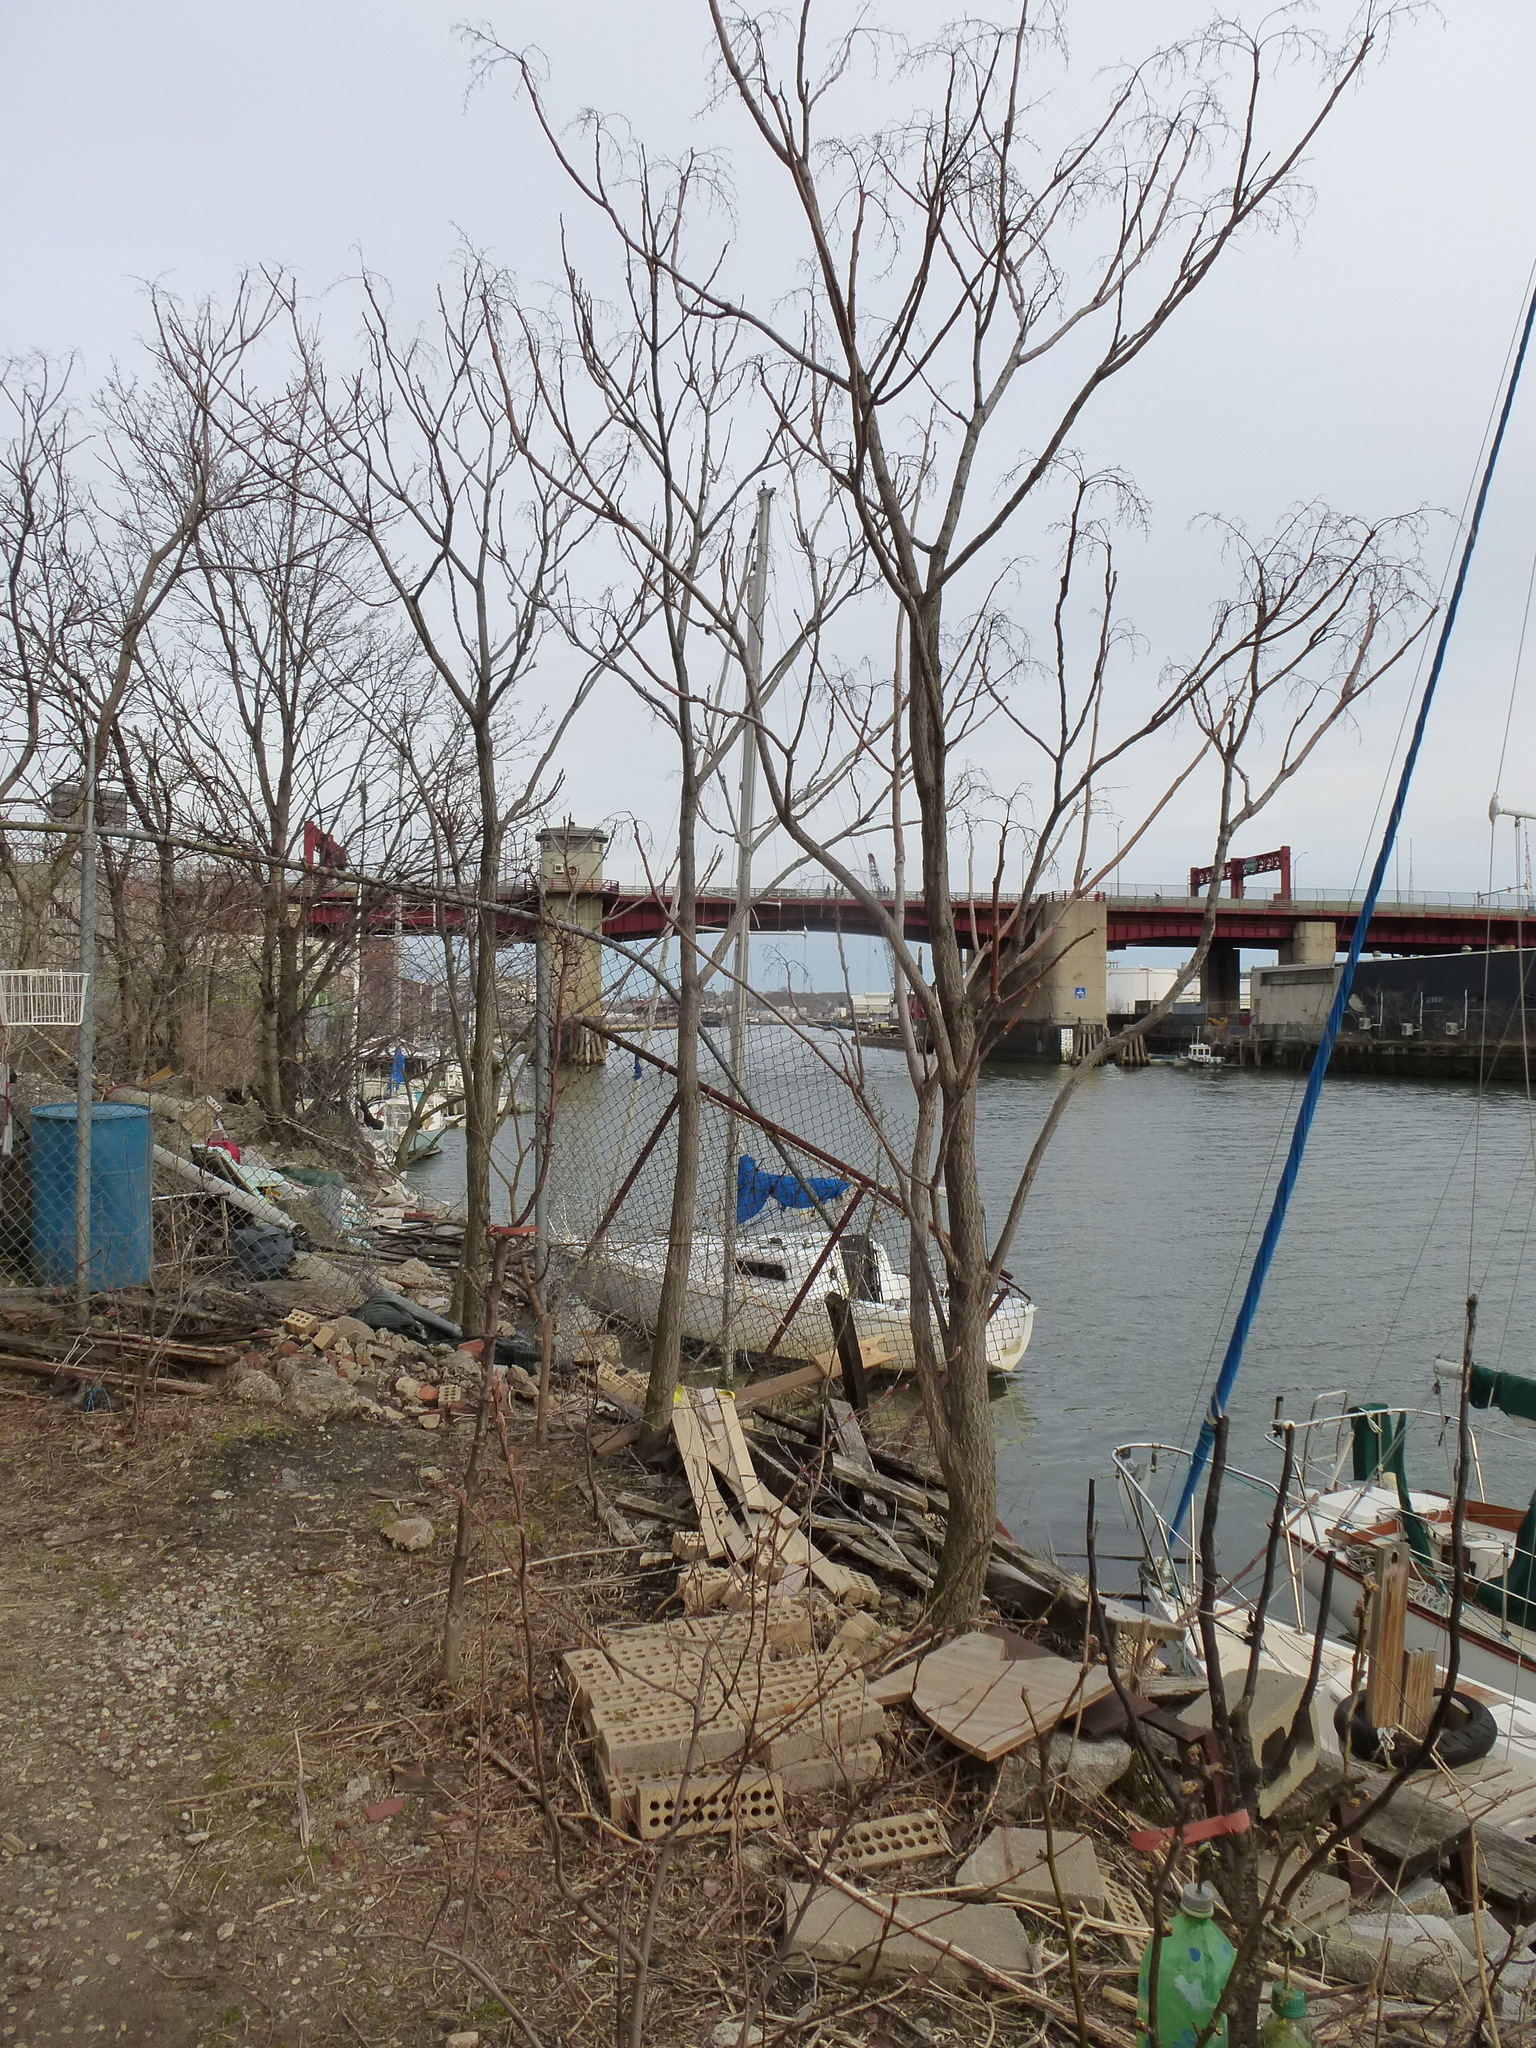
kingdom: Plantae
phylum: Tracheophyta
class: Magnoliopsida
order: Sapindales
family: Simaroubaceae
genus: Ailanthus
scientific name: Ailanthus altissima
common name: Tree-of-heaven
